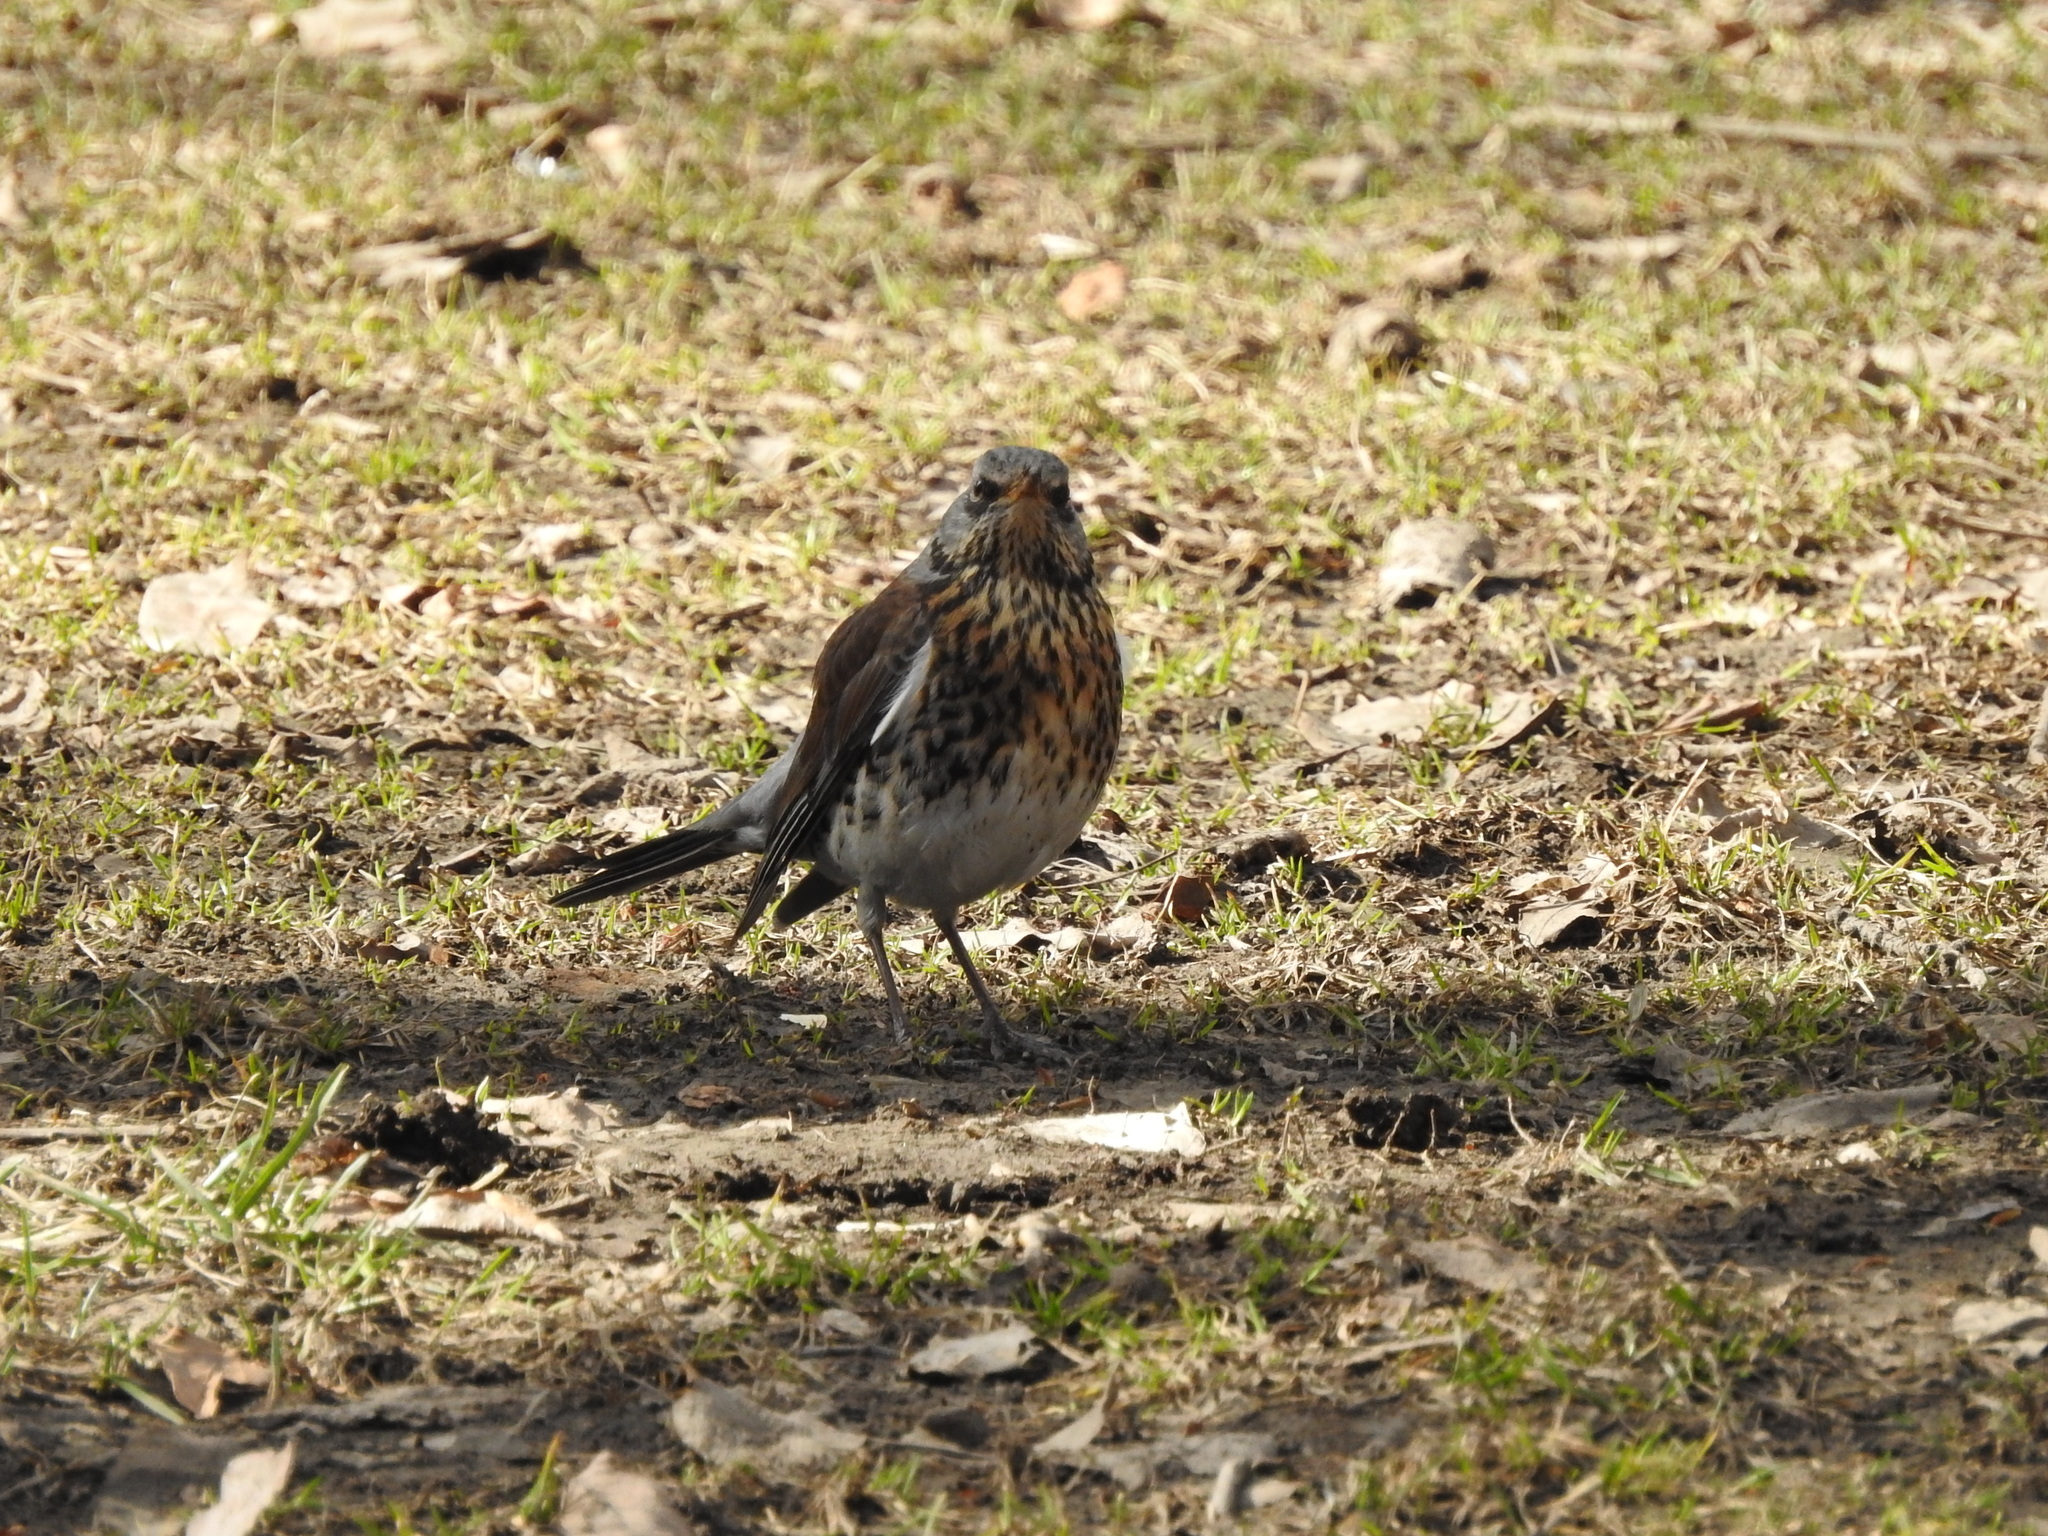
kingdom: Animalia
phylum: Chordata
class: Aves
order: Passeriformes
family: Turdidae
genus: Turdus
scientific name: Turdus pilaris
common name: Fieldfare
